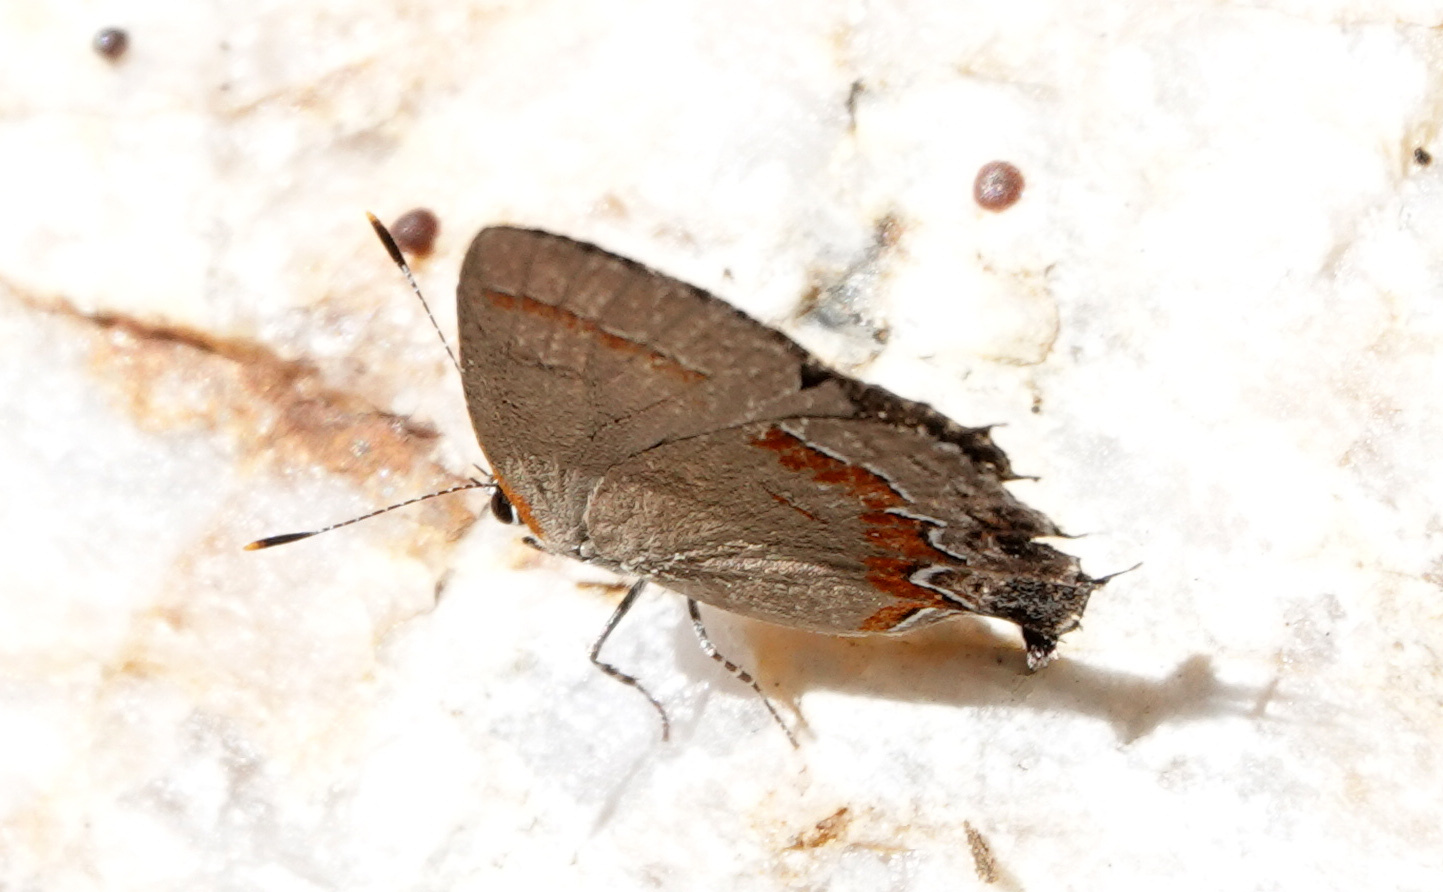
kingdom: Animalia
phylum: Arthropoda
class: Insecta
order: Lepidoptera
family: Lycaenidae
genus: Calycopis
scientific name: Calycopis cecrops
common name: Red-banded hairstreak
